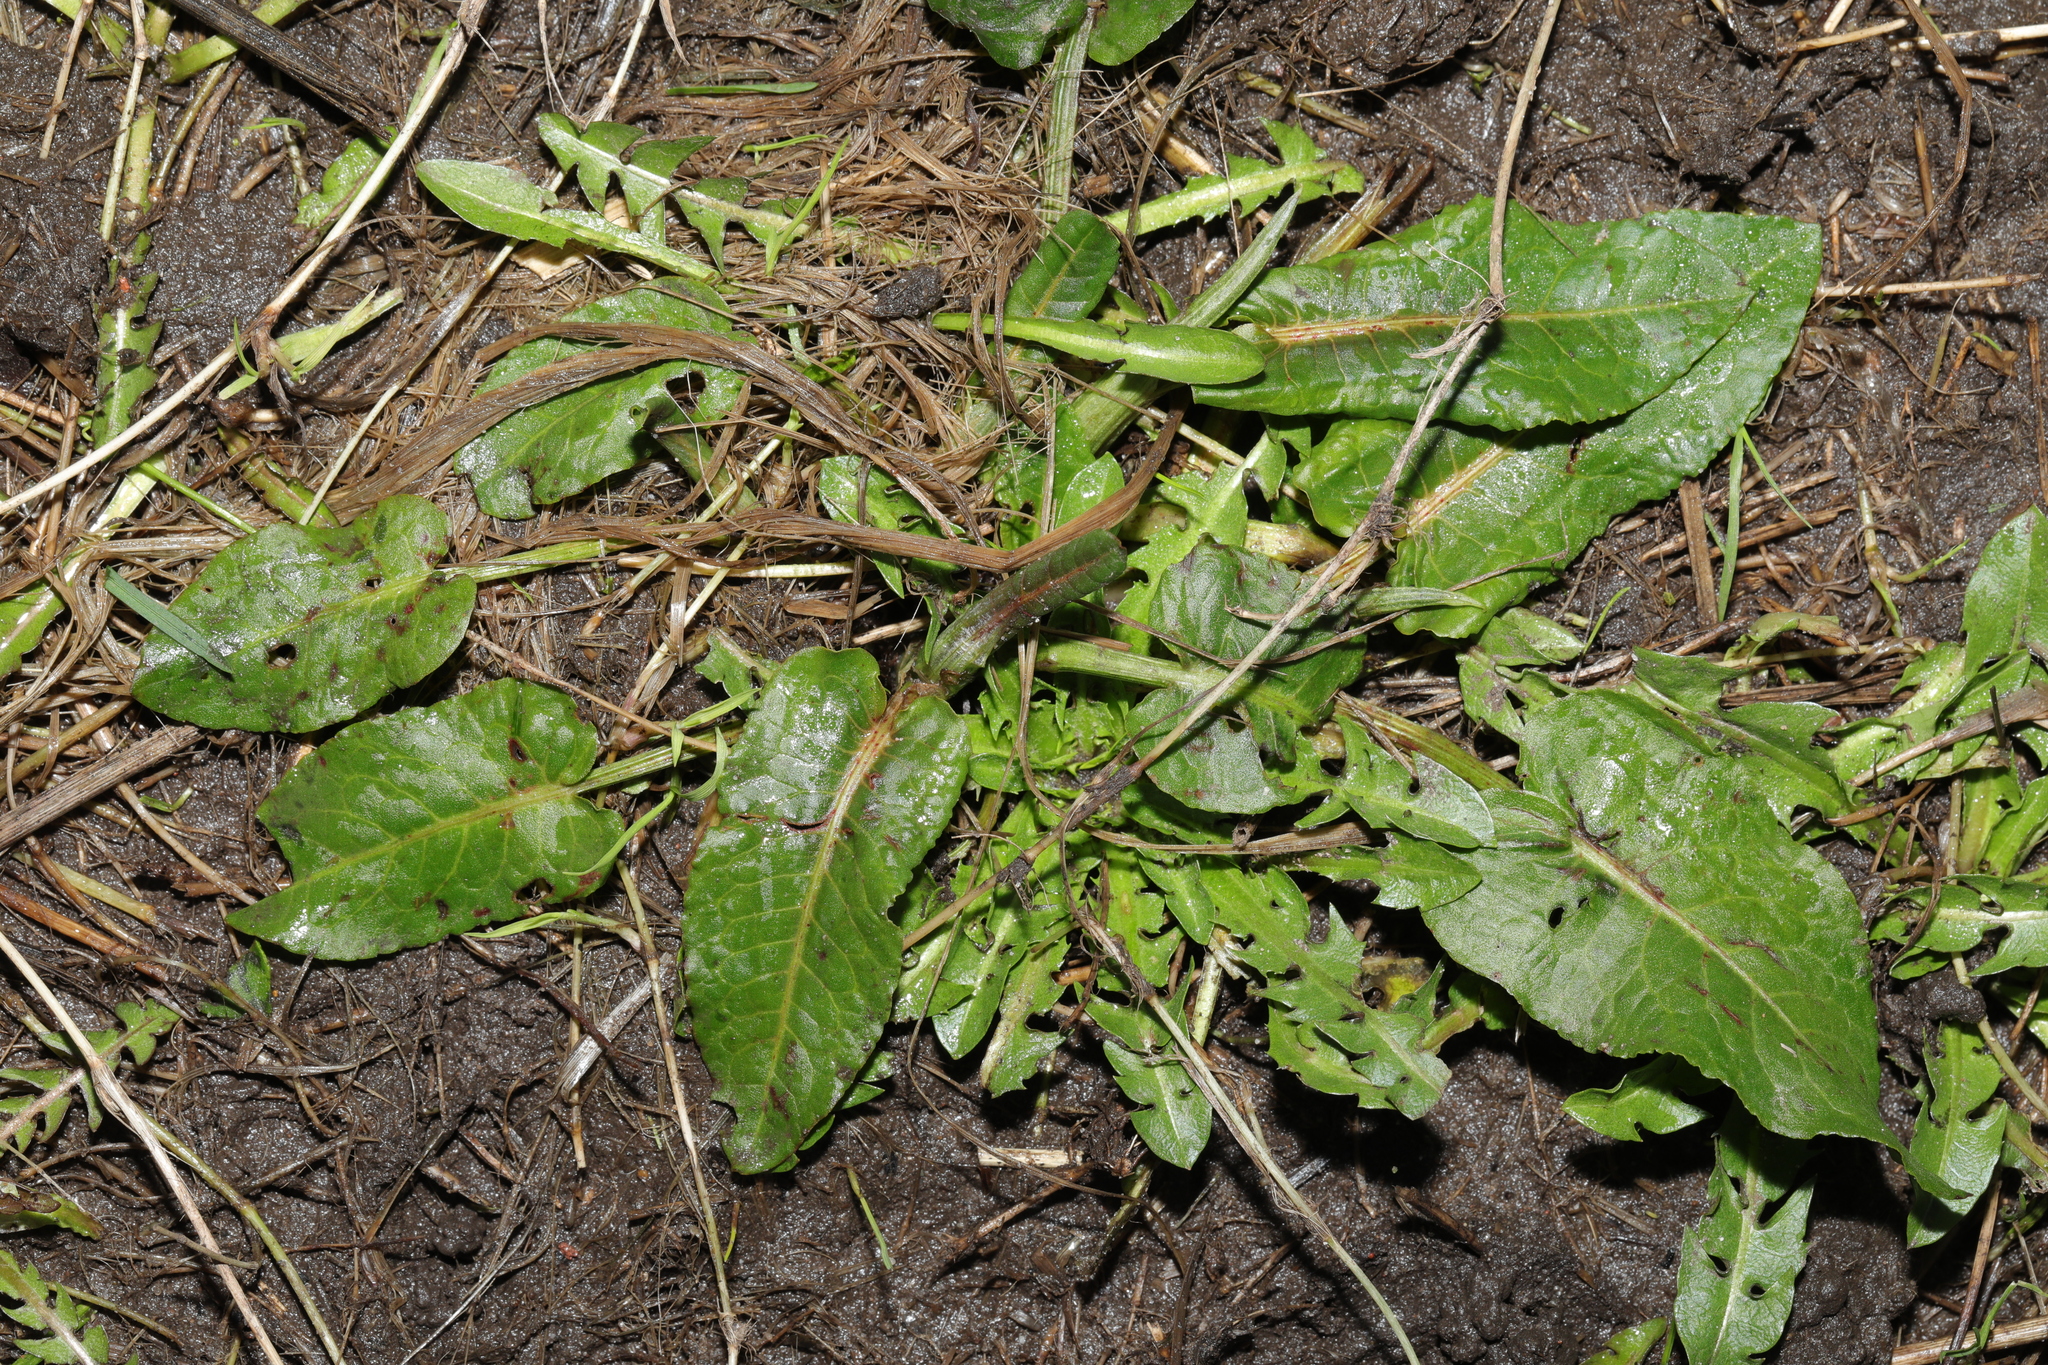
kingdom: Plantae
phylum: Tracheophyta
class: Magnoliopsida
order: Caryophyllales
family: Polygonaceae
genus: Rumex
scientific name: Rumex obtusifolius
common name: Bitter dock
